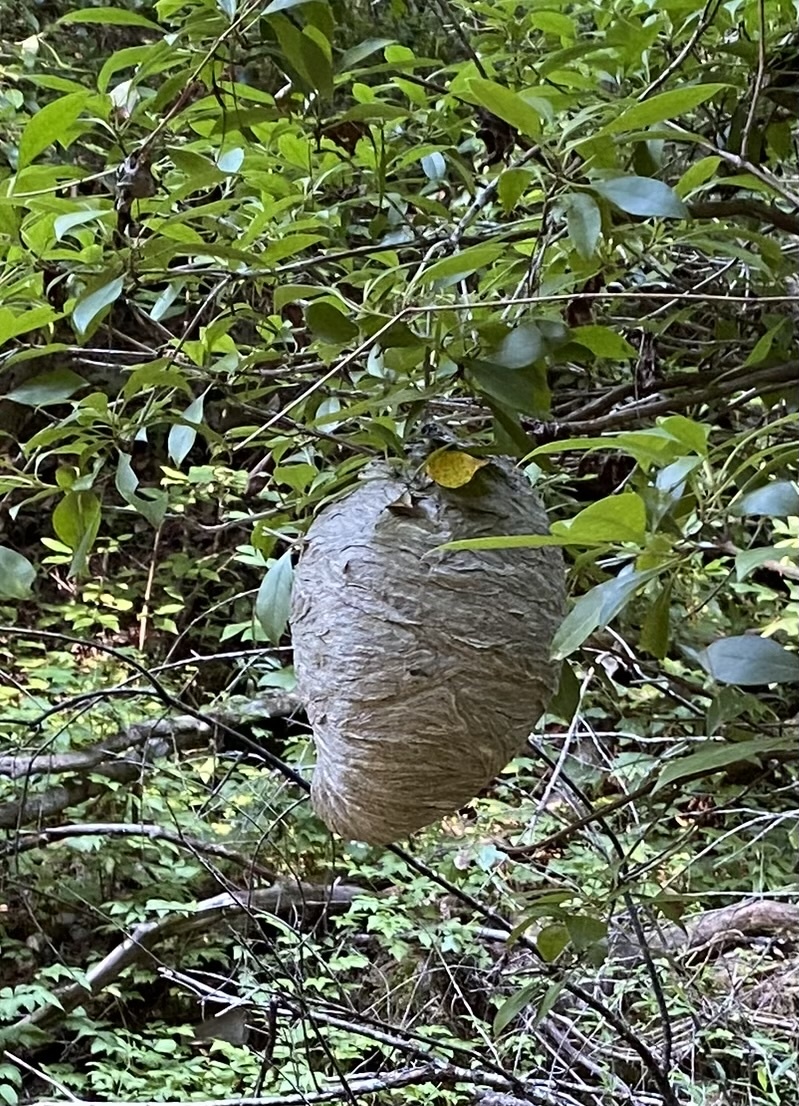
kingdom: Animalia
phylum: Arthropoda
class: Insecta
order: Hymenoptera
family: Vespidae
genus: Dolichovespula
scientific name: Dolichovespula
